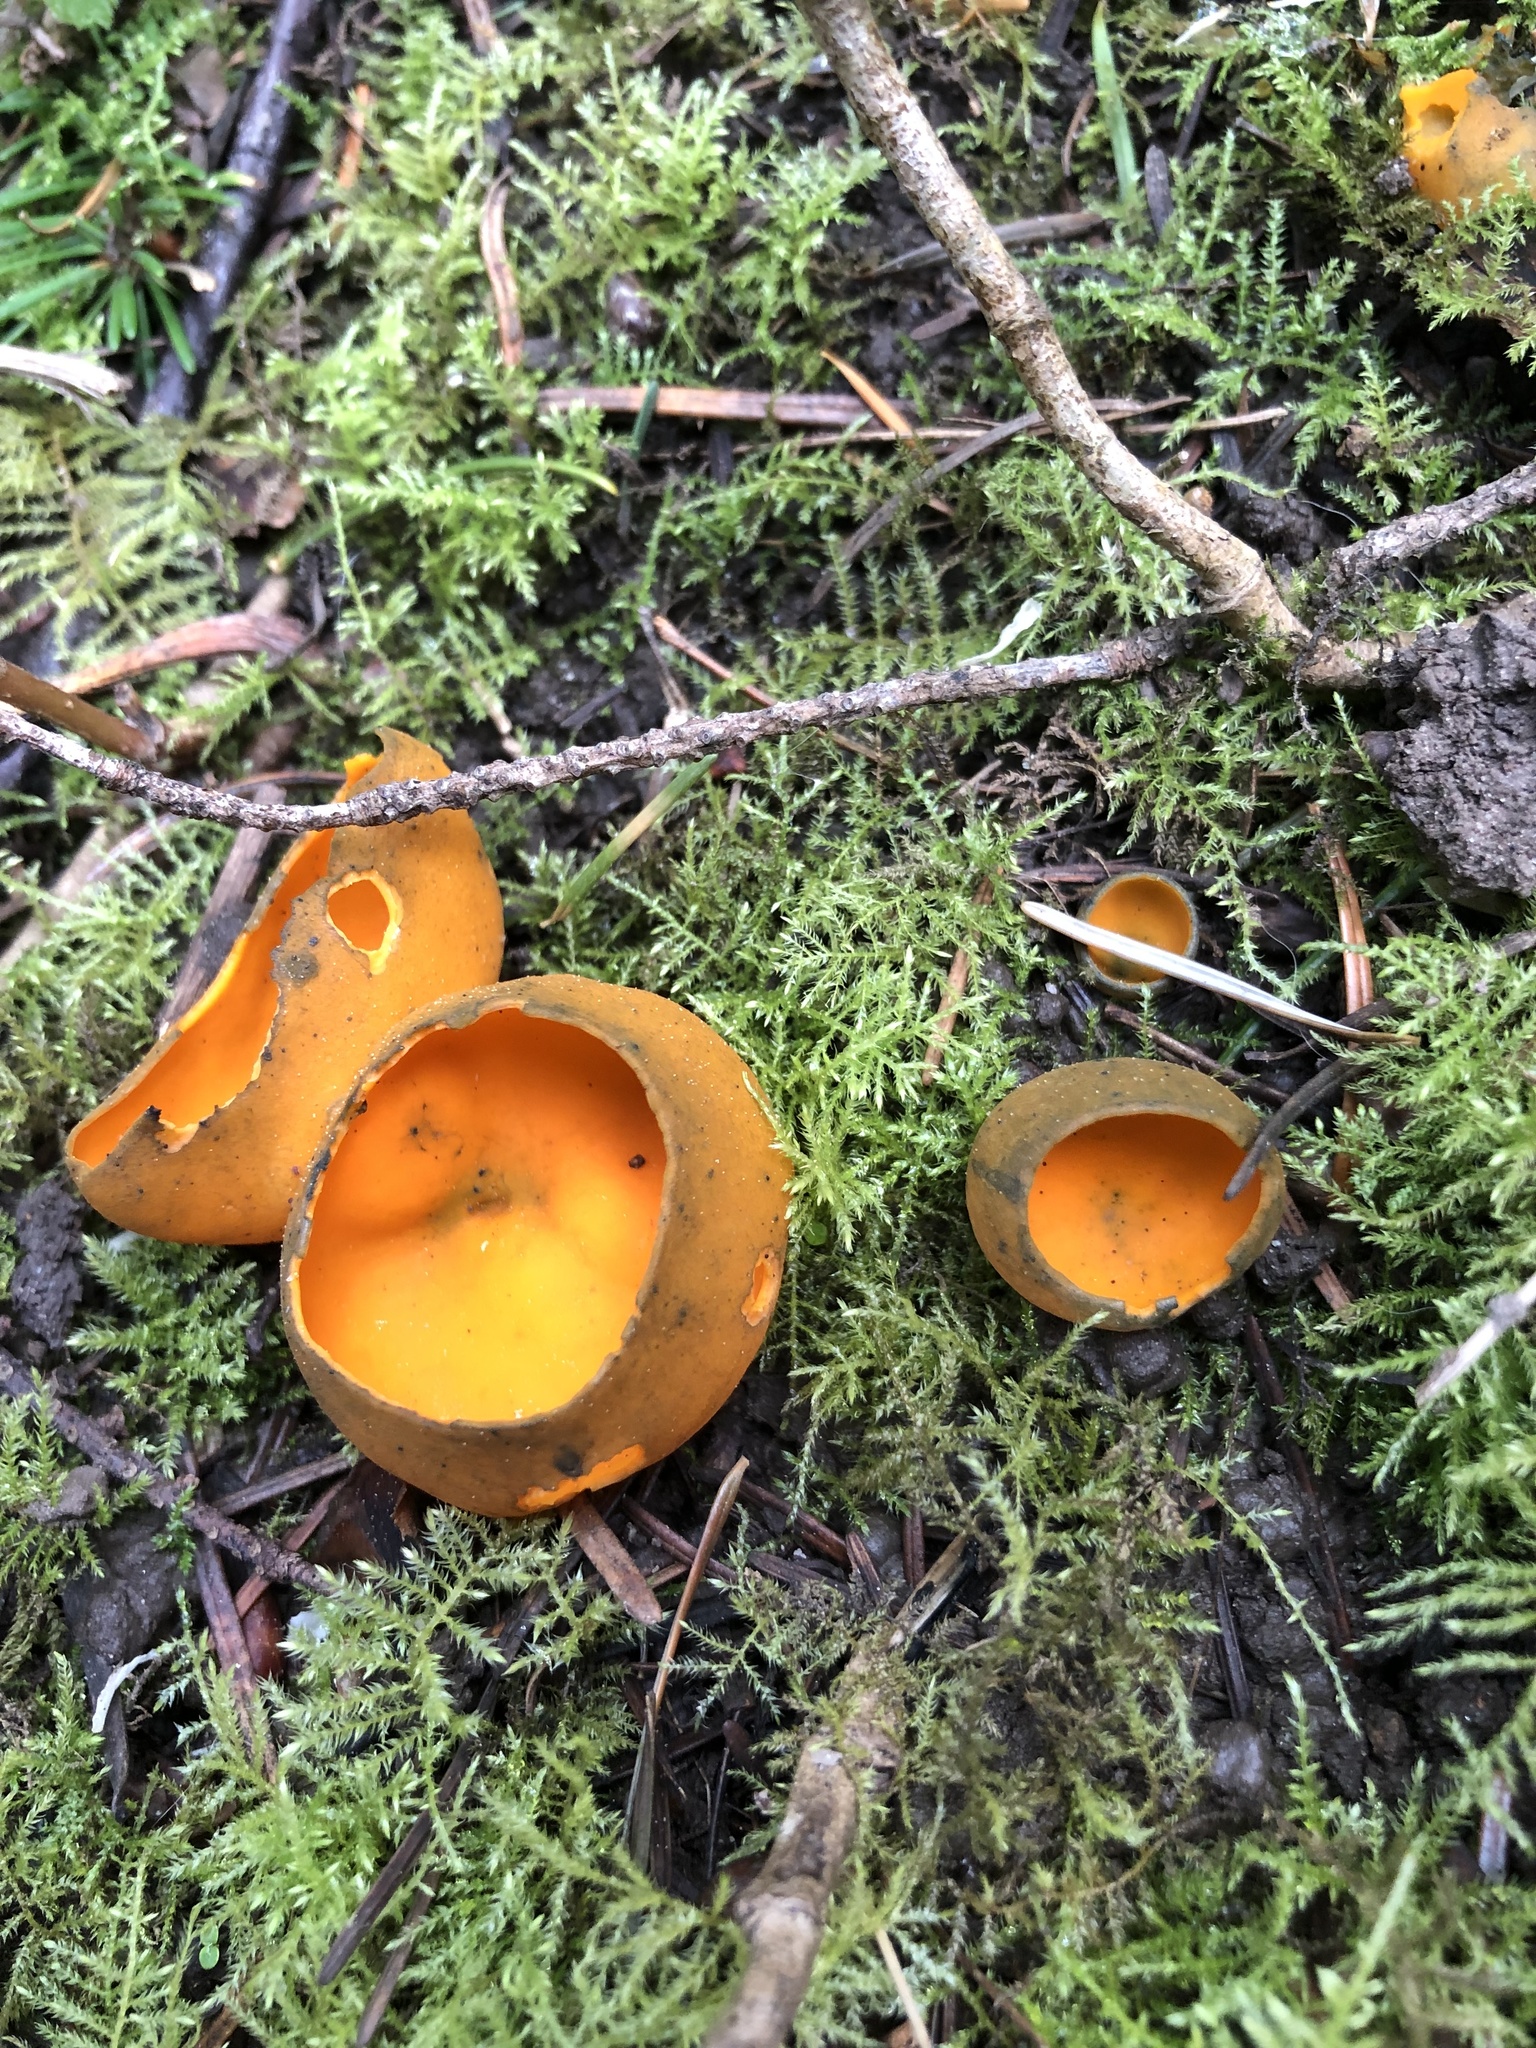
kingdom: Fungi
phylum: Ascomycota
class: Pezizomycetes
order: Pezizales
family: Caloscyphaceae
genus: Caloscypha
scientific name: Caloscypha fulgens
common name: Golden cup
